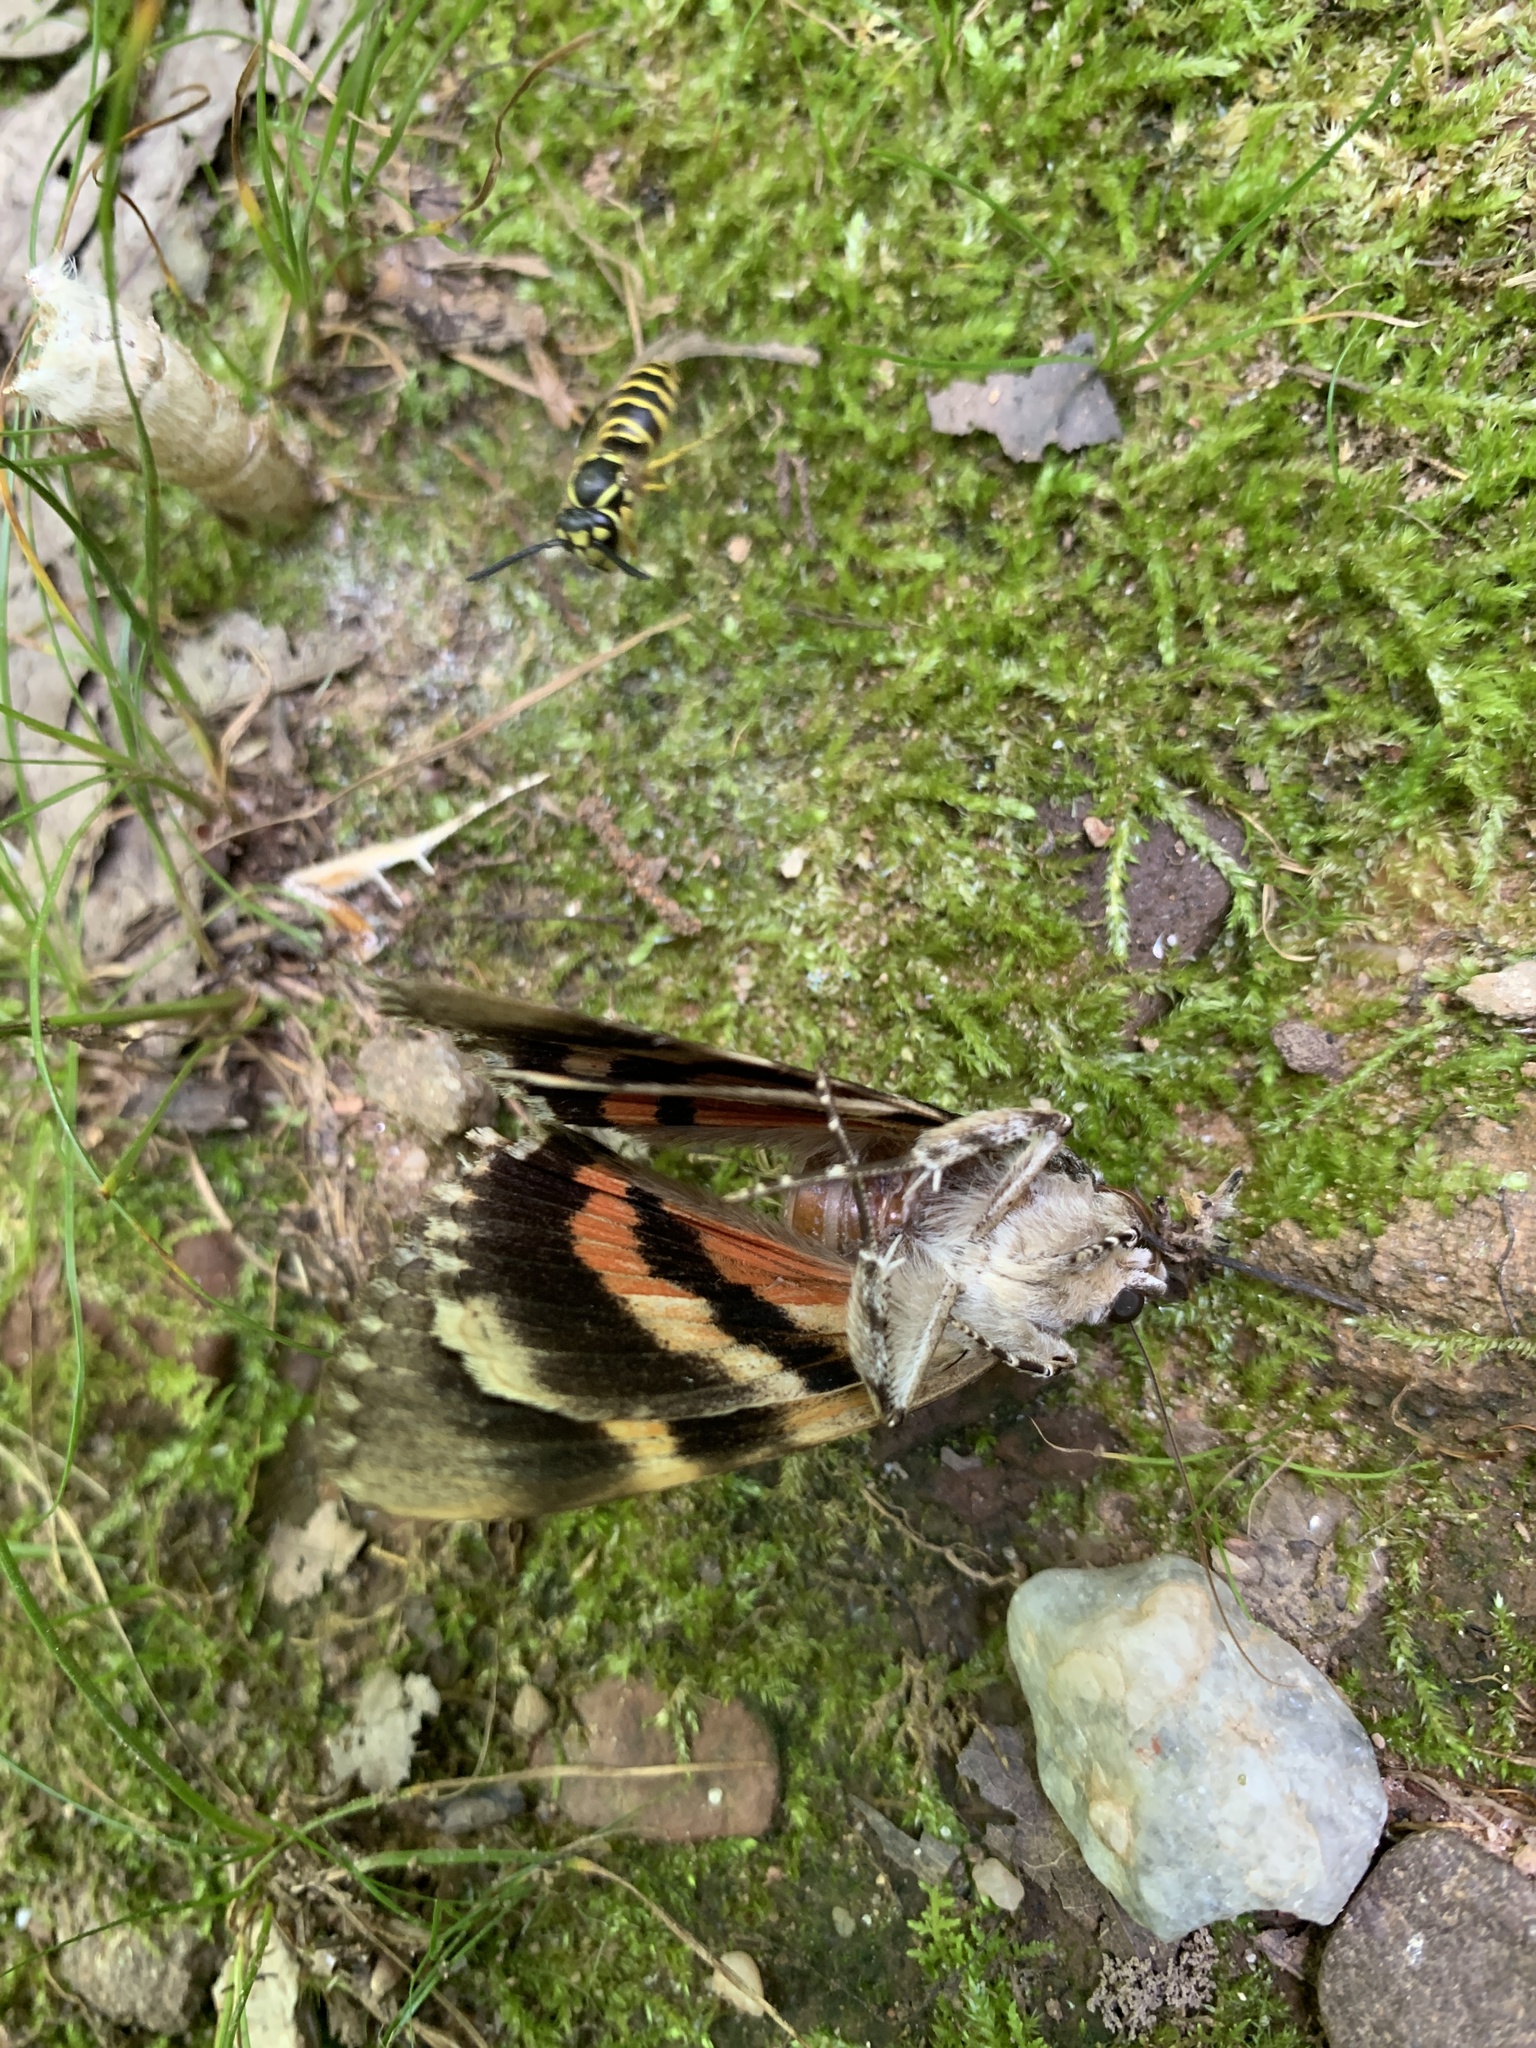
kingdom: Animalia
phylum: Arthropoda
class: Insecta
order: Lepidoptera
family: Erebidae
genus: Catocala
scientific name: Catocala ilia
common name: Ilia underwing
